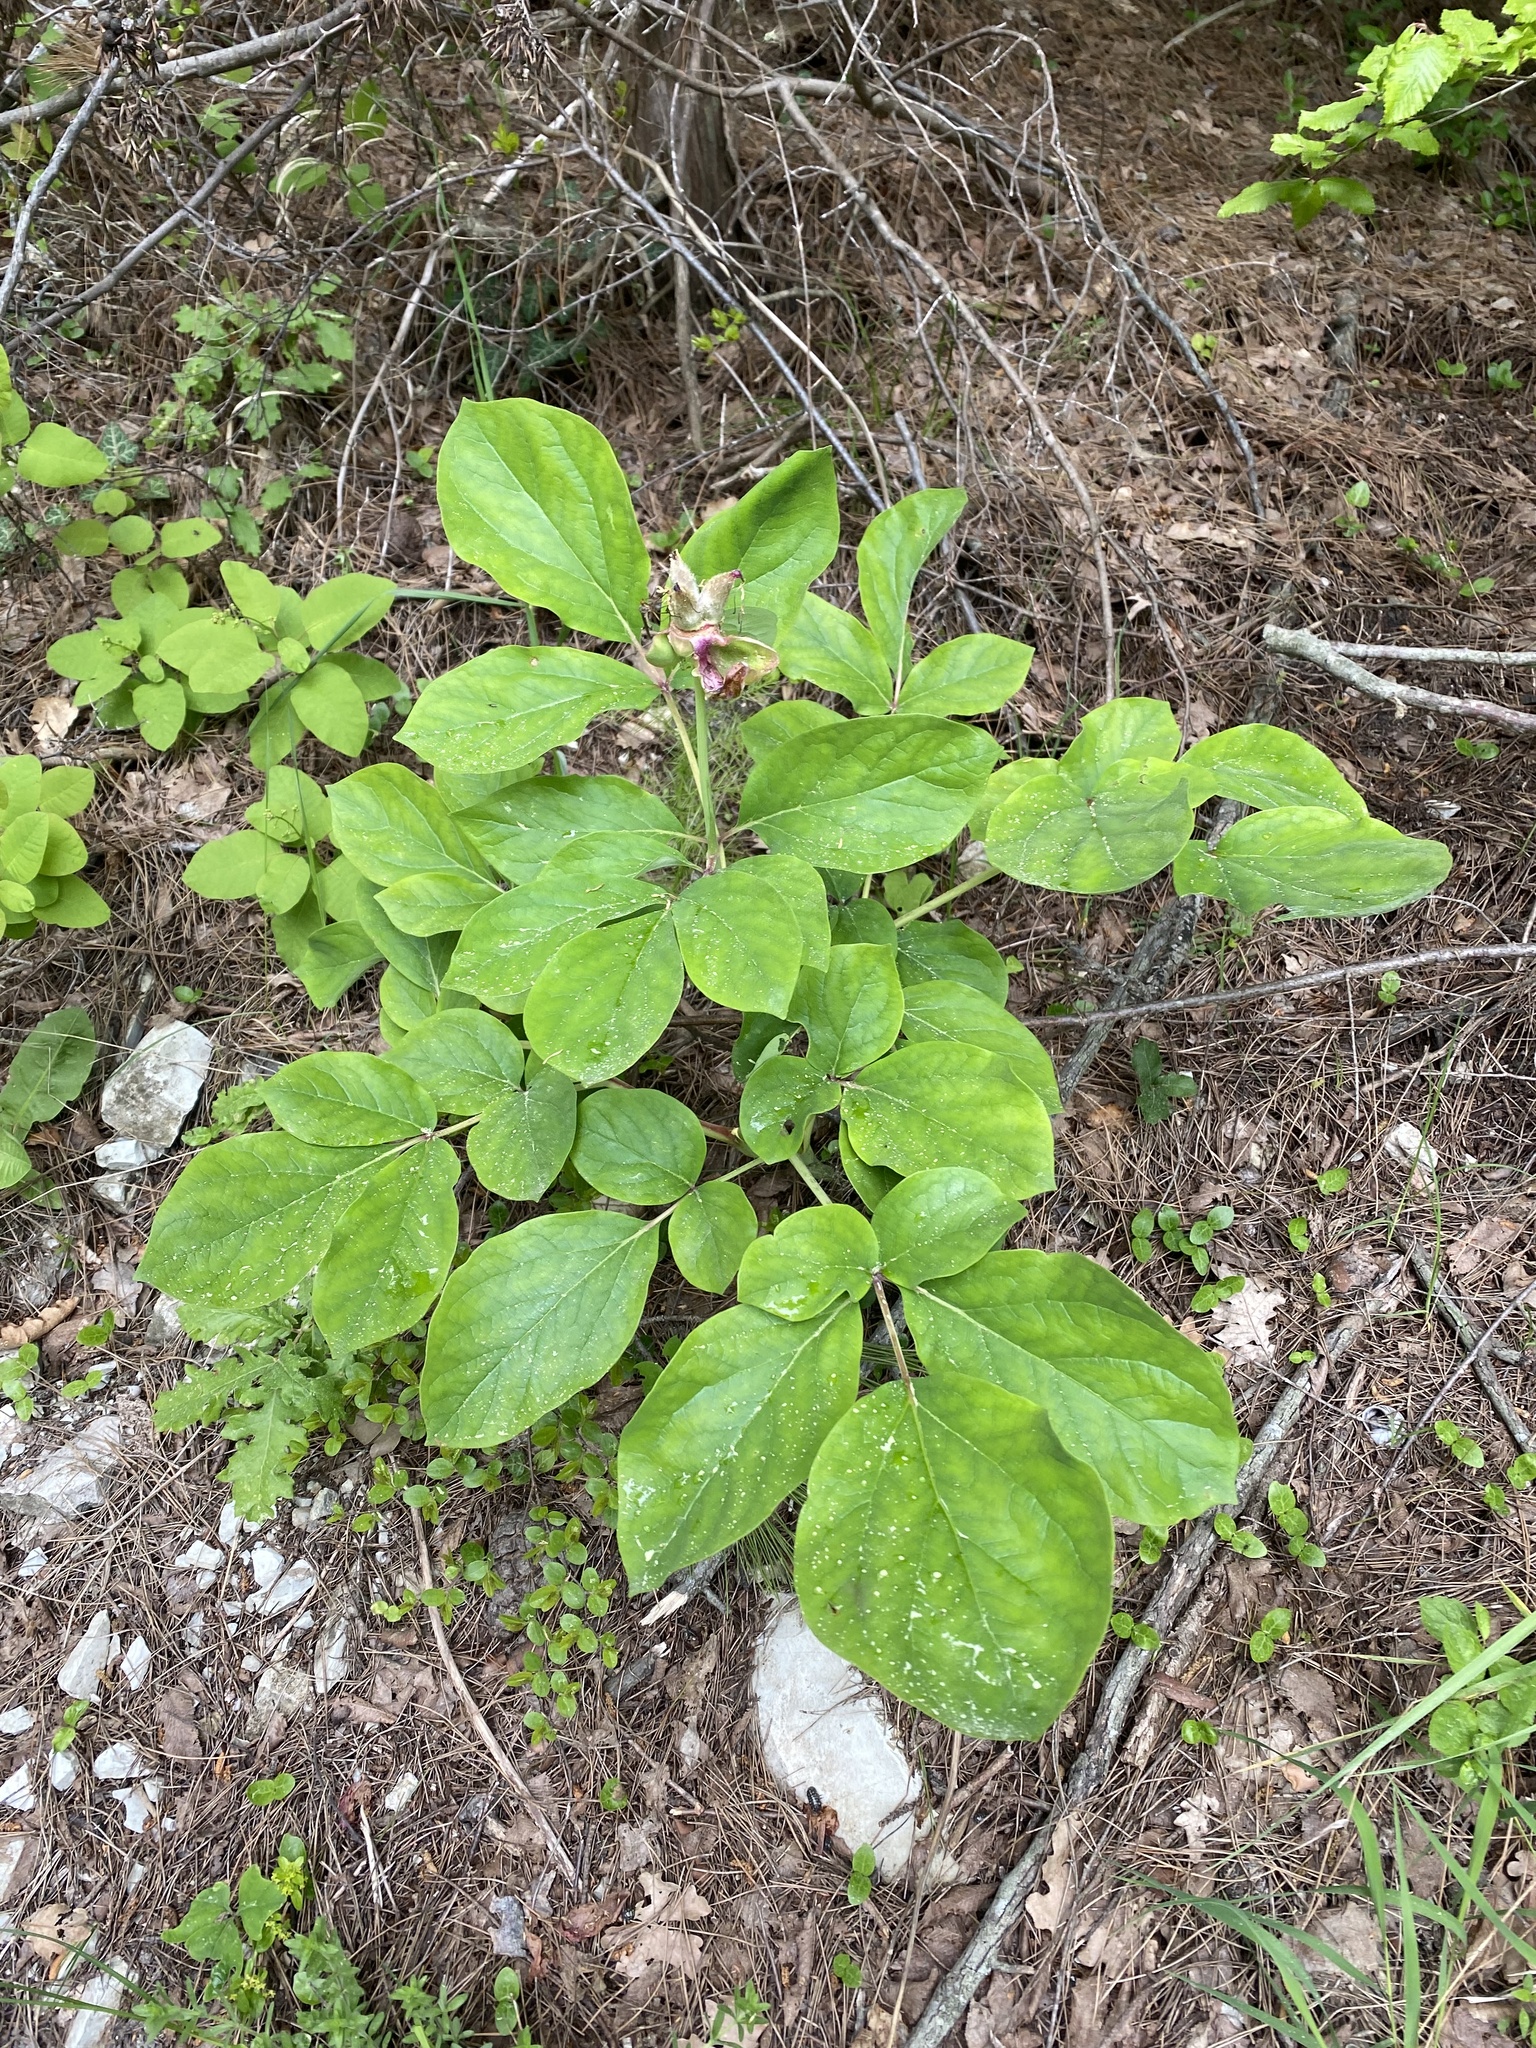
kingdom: Plantae
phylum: Tracheophyta
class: Magnoliopsida
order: Saxifragales
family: Paeoniaceae
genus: Paeonia
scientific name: Paeonia caucasica
